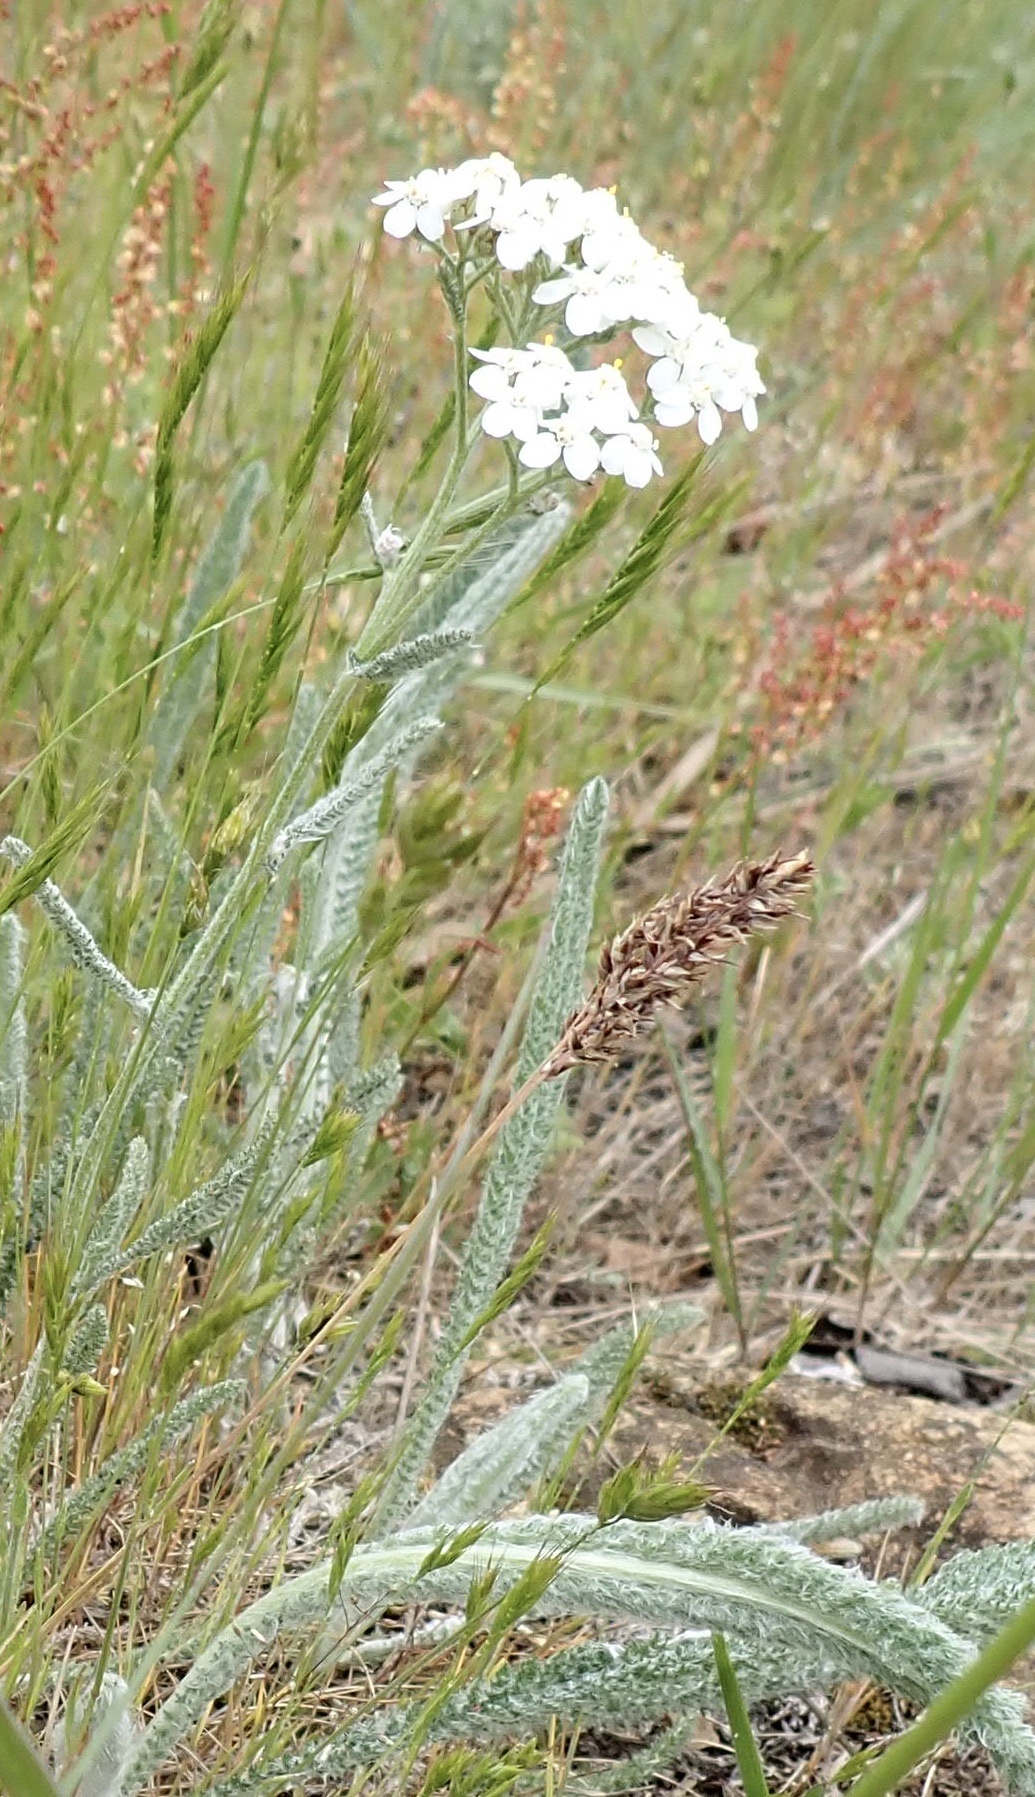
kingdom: Plantae
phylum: Tracheophyta
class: Magnoliopsida
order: Asterales
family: Asteraceae
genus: Achillea
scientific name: Achillea millefolium
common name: Yarrow
